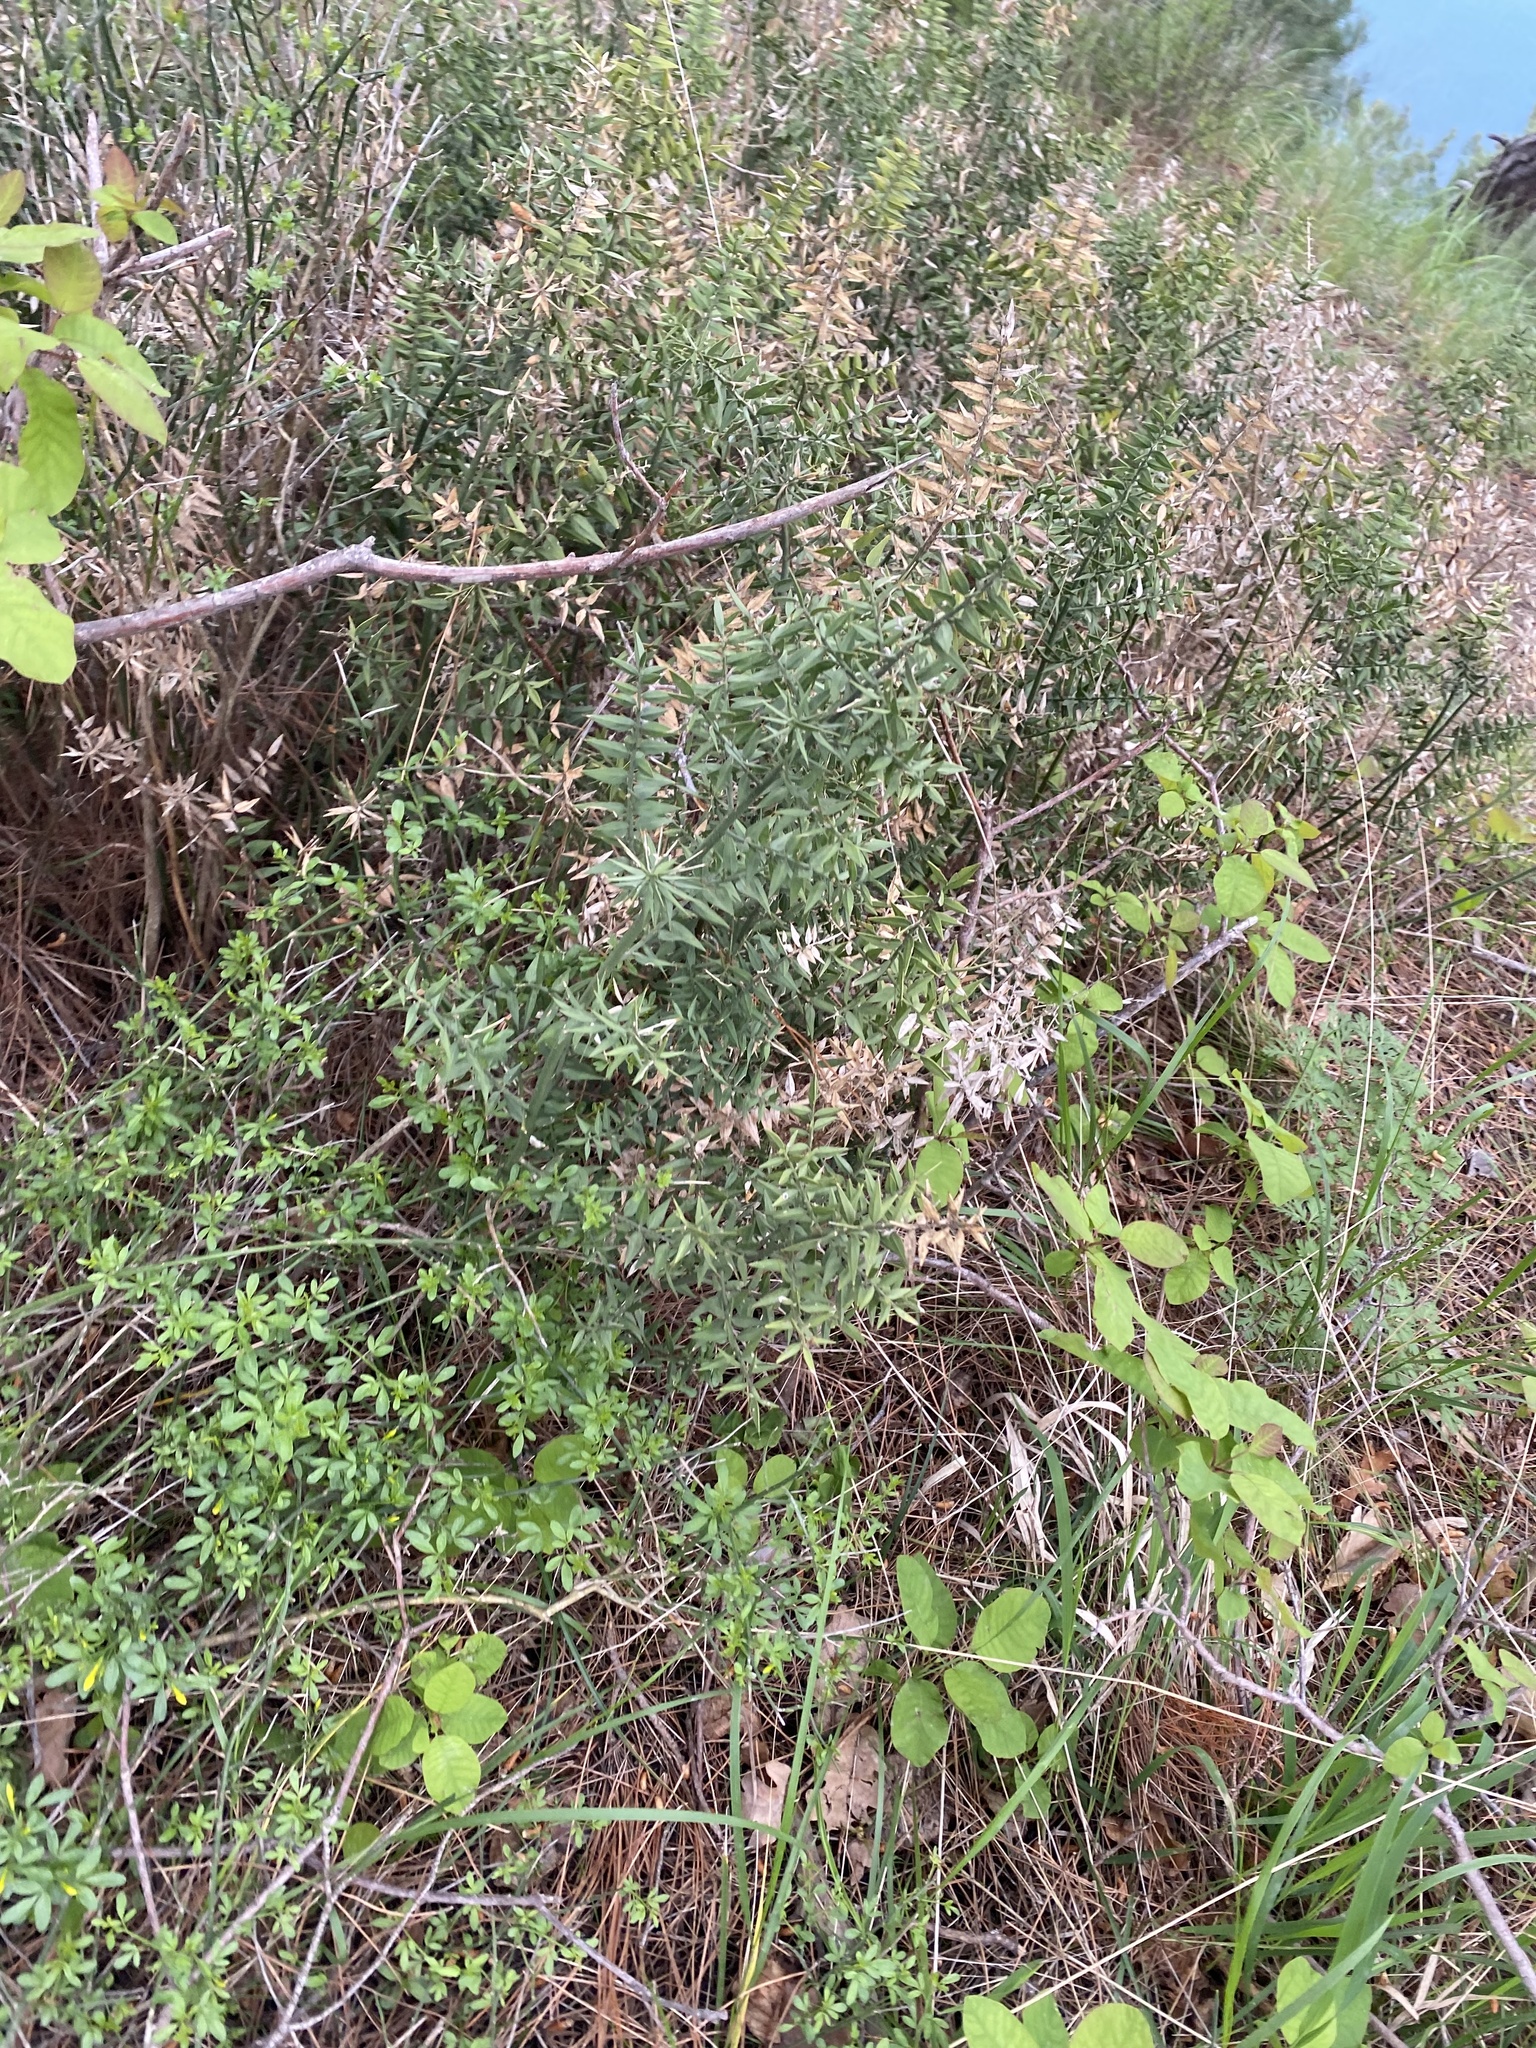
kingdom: Plantae
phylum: Tracheophyta
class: Liliopsida
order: Asparagales
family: Asparagaceae
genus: Ruscus
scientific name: Ruscus aculeatus
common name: Butcher's-broom
